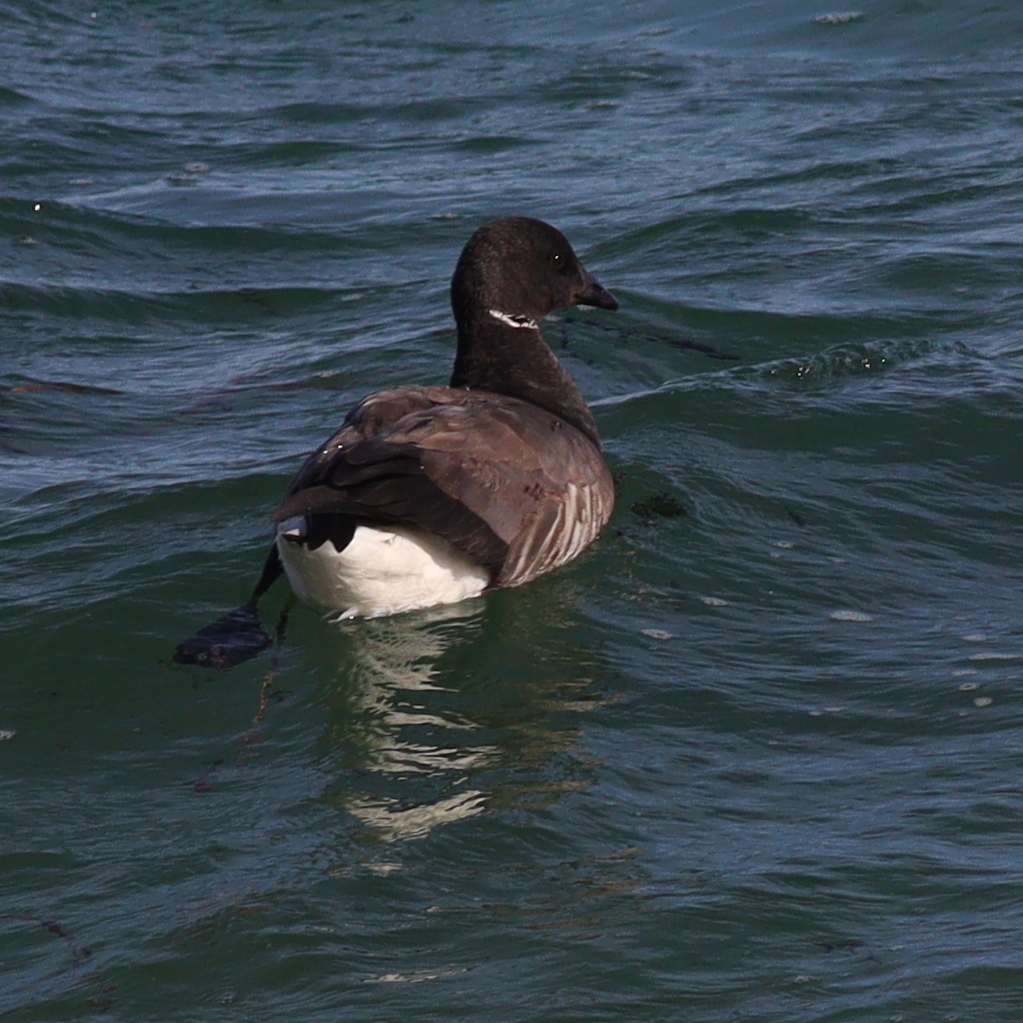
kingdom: Animalia
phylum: Chordata
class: Aves
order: Anseriformes
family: Anatidae
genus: Branta
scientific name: Branta bernicla
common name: Brant goose
